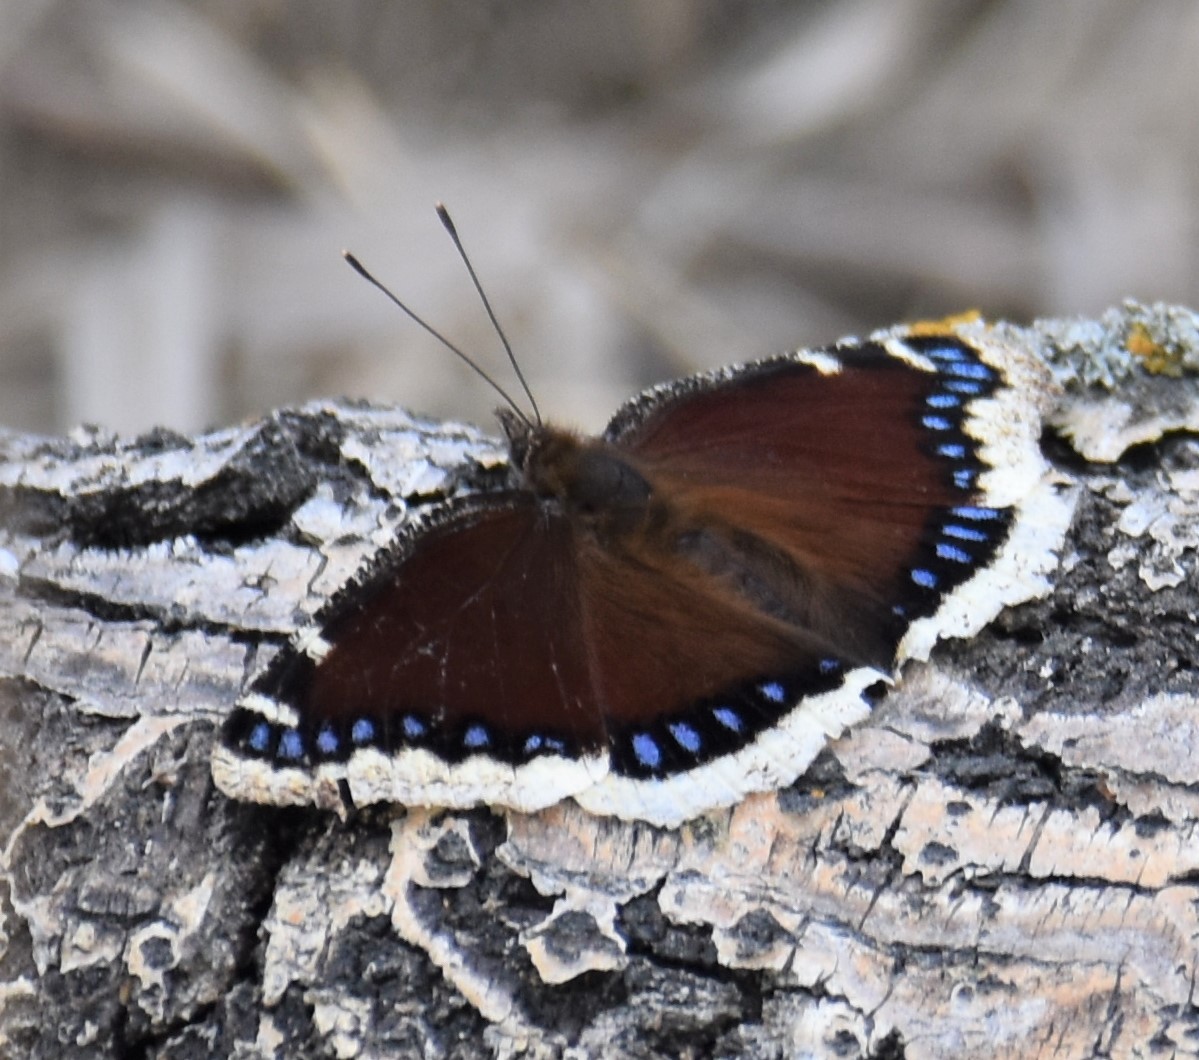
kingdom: Animalia
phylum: Arthropoda
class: Insecta
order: Lepidoptera
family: Nymphalidae
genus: Nymphalis
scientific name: Nymphalis antiopa
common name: Camberwell beauty
